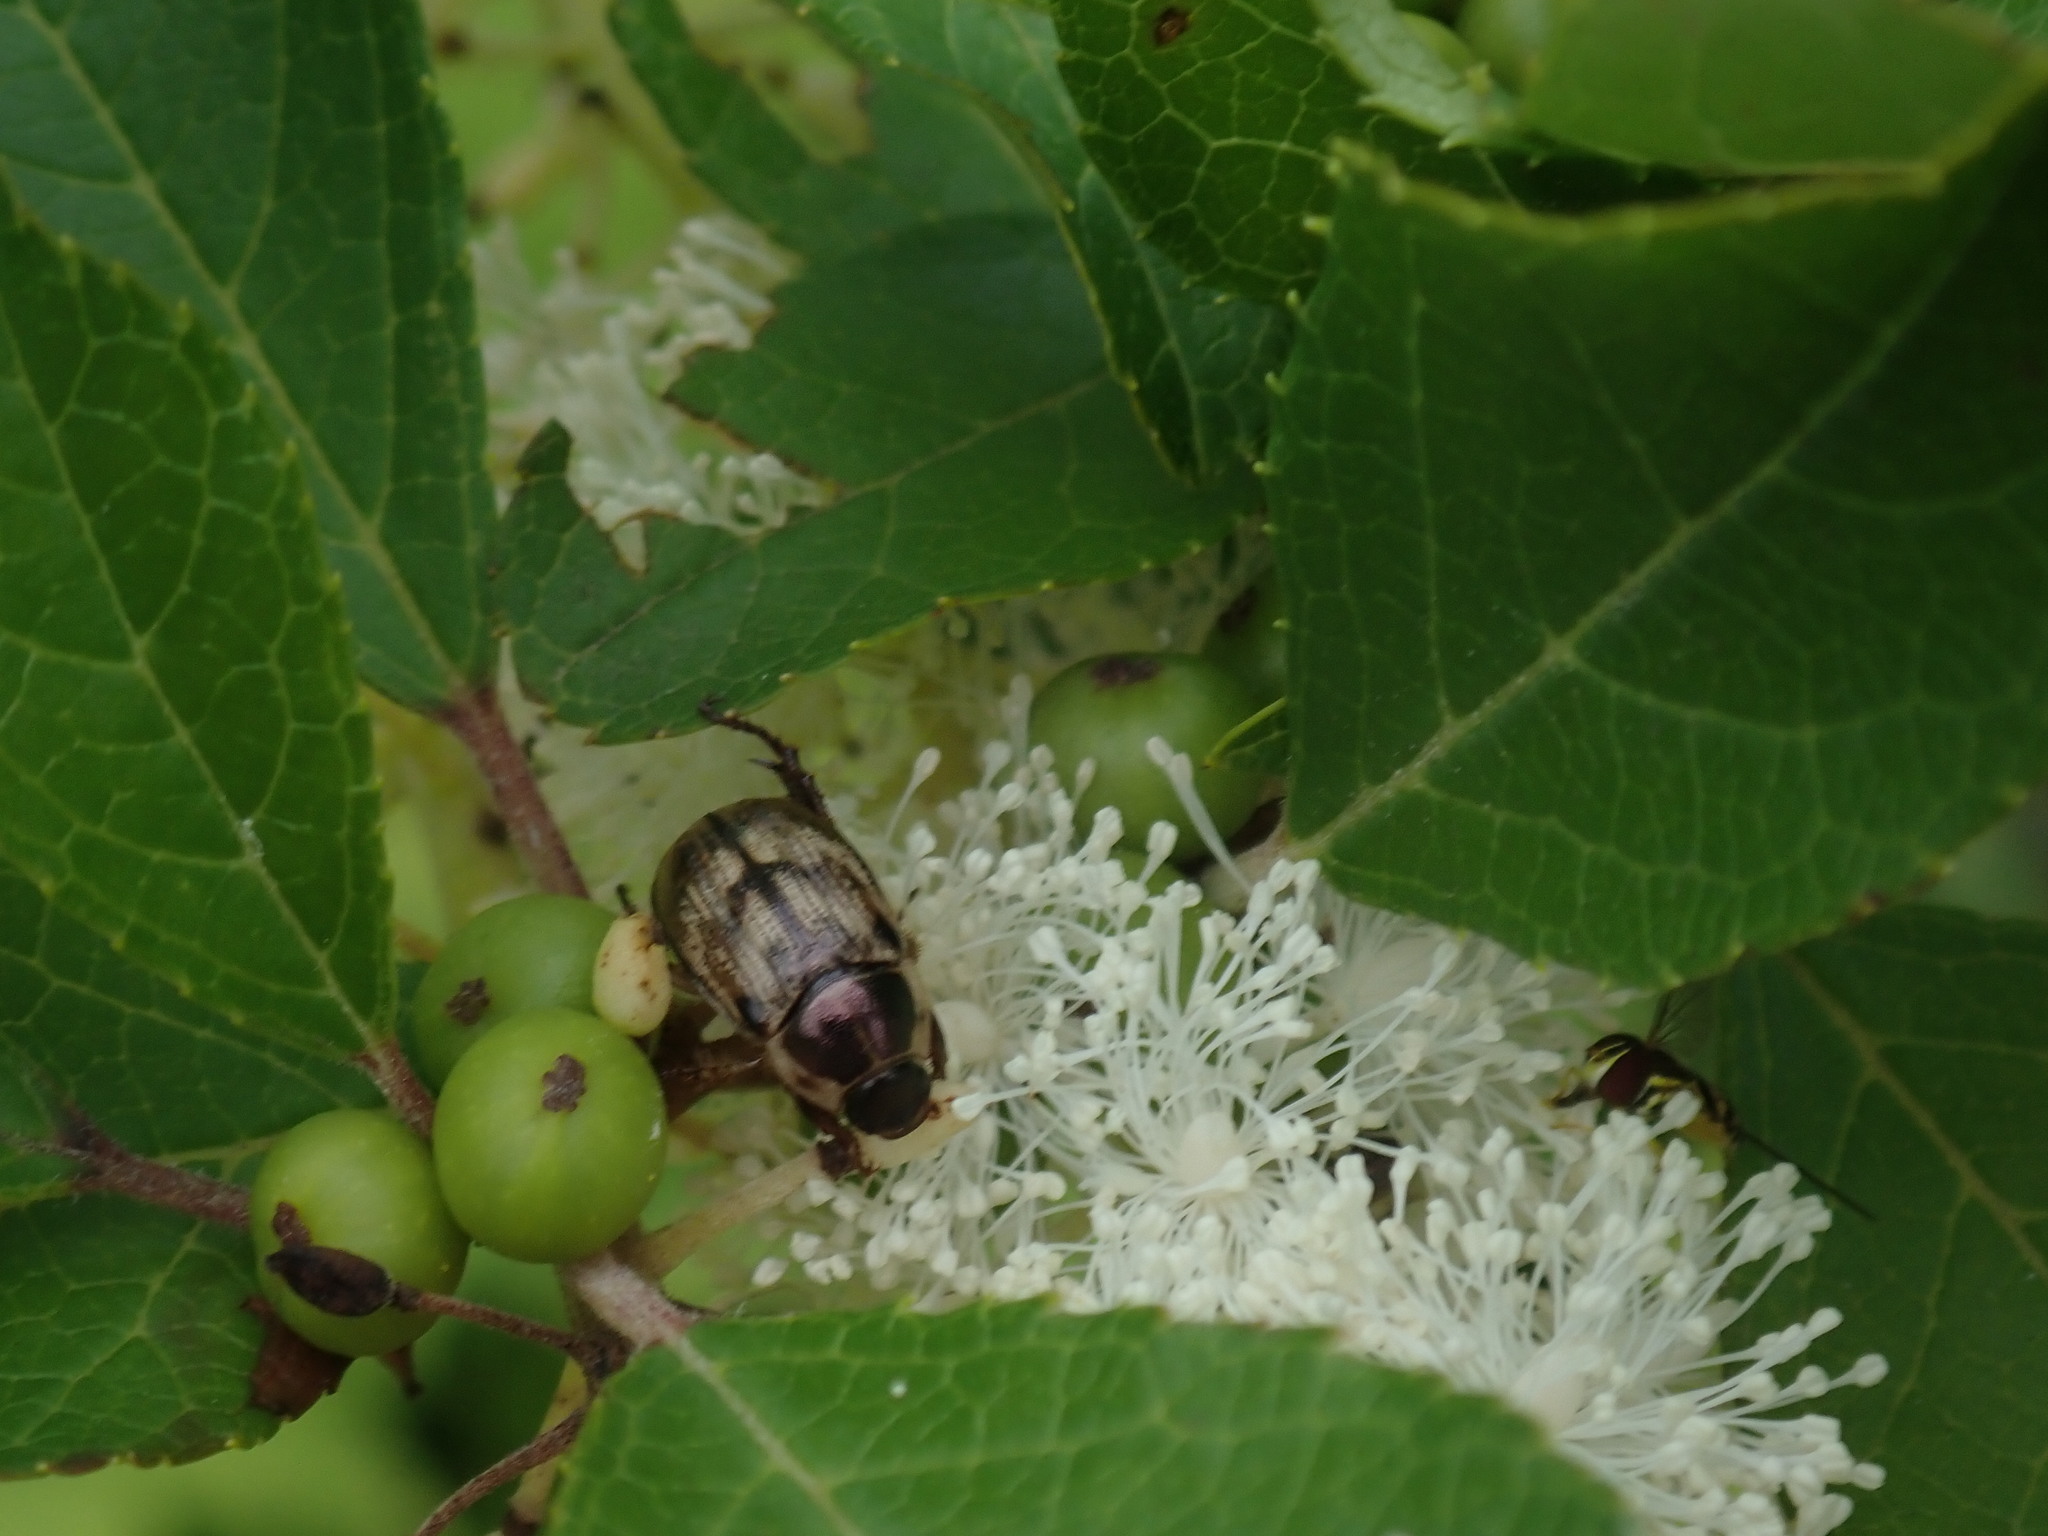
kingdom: Animalia
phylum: Arthropoda
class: Insecta
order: Coleoptera
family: Scarabaeidae
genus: Exomala
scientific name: Exomala orientalis
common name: Oriental beetle
